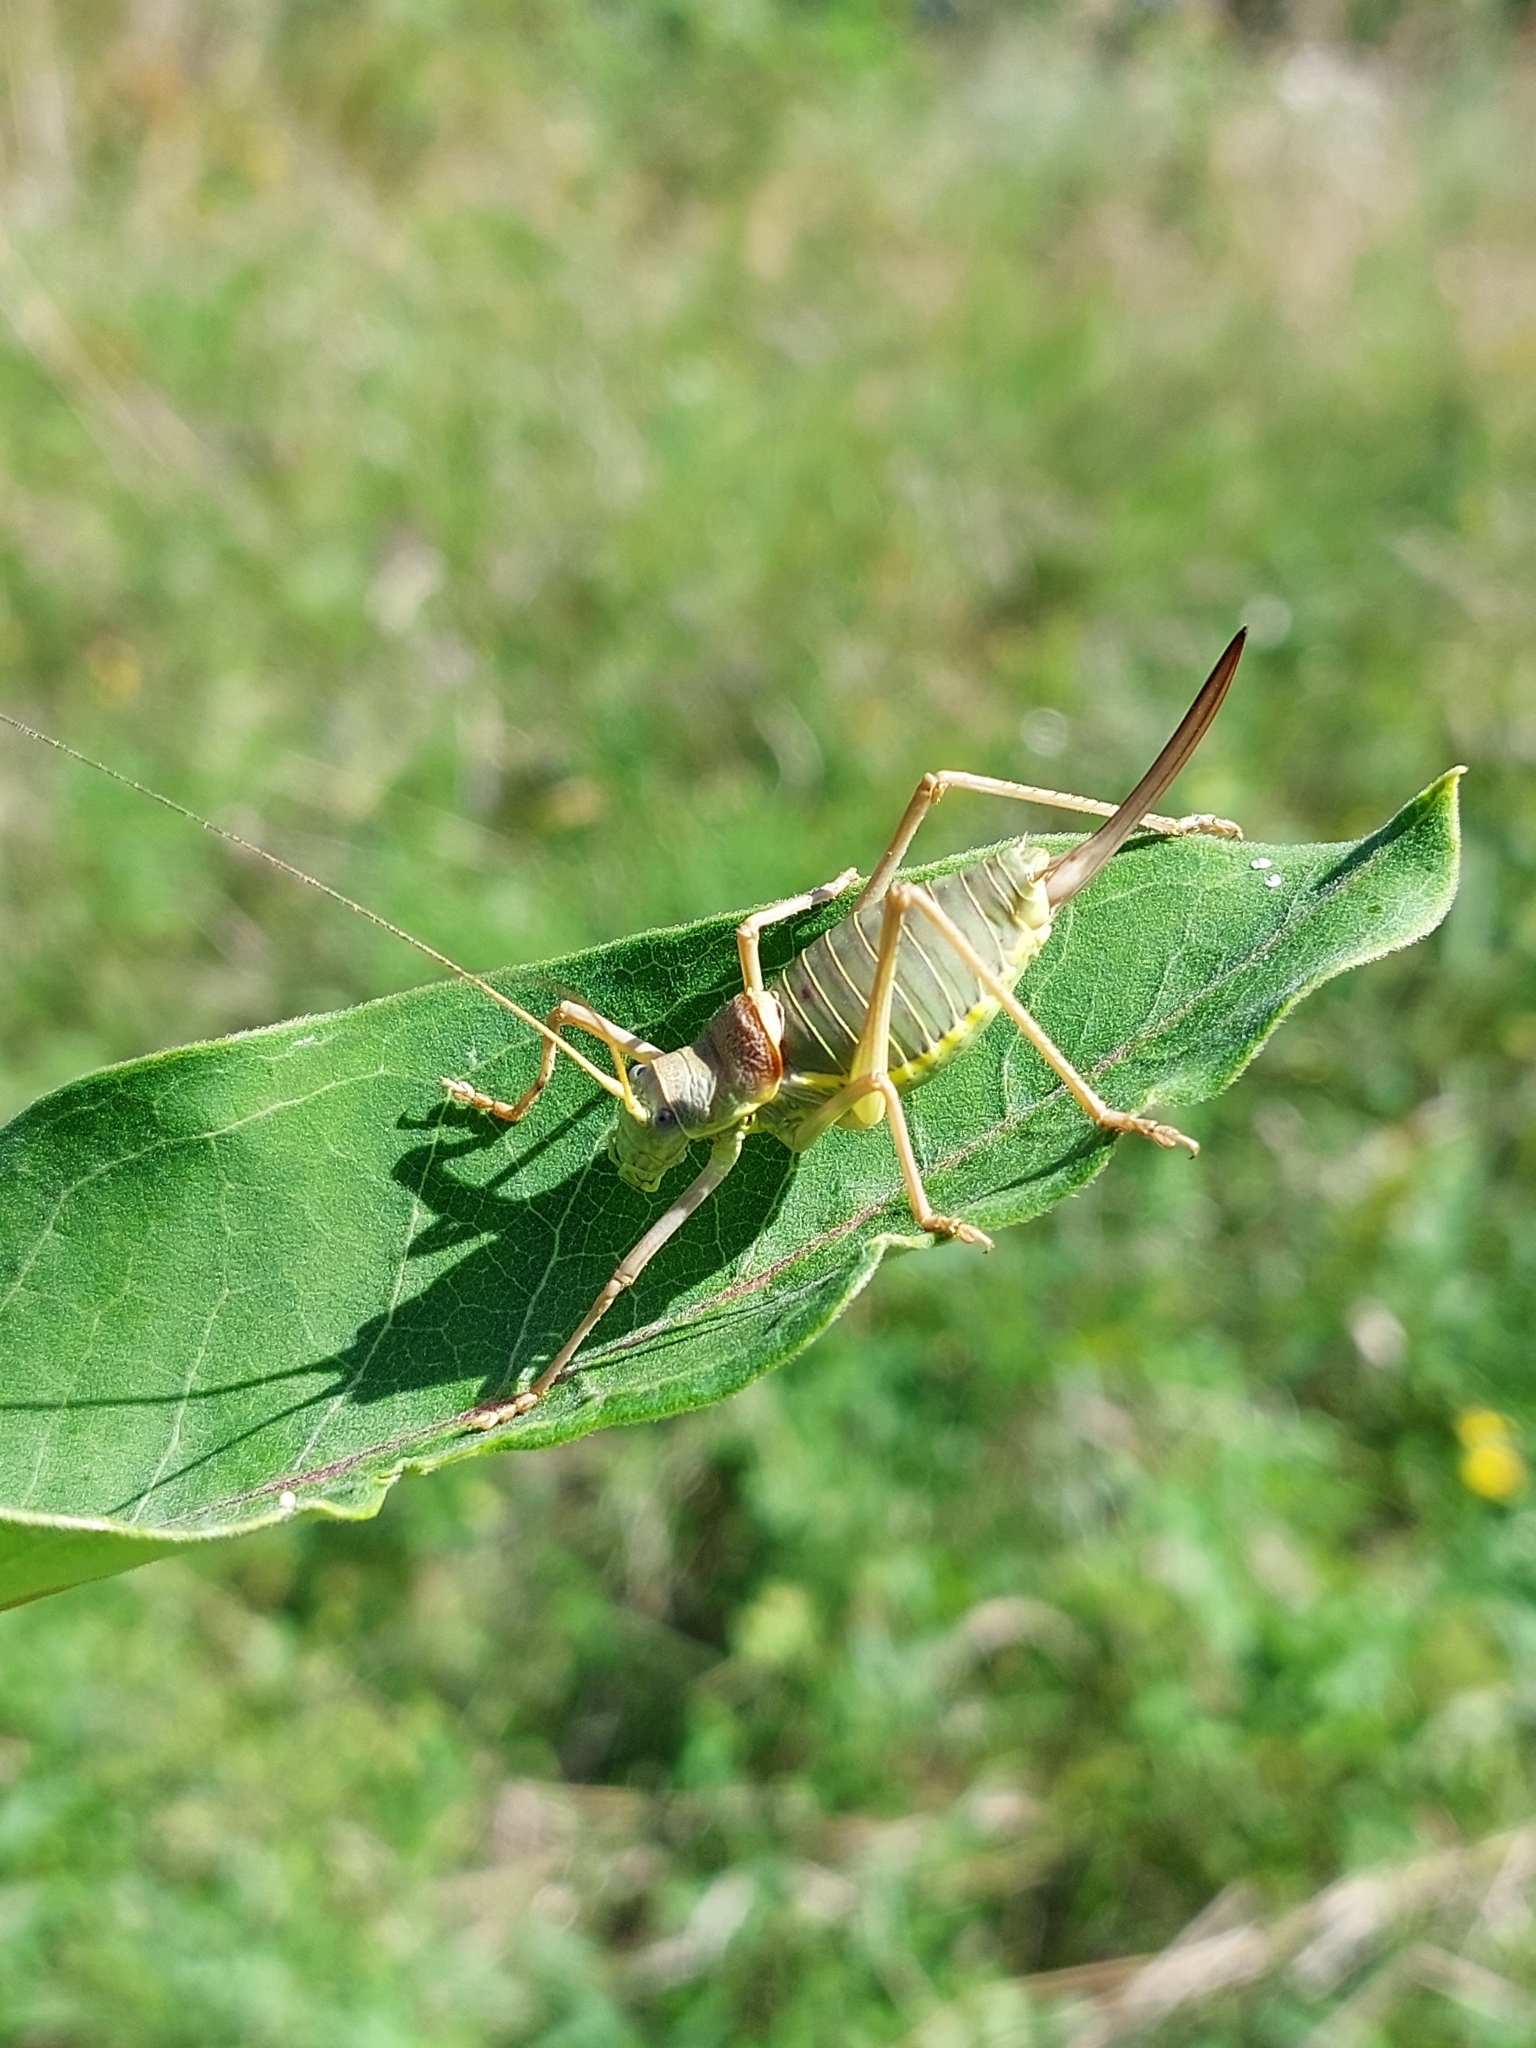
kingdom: Animalia
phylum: Arthropoda
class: Insecta
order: Orthoptera
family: Tettigoniidae
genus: Ephippiger
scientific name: Ephippiger ephippiger
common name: Eastern saddle bush-cricket
